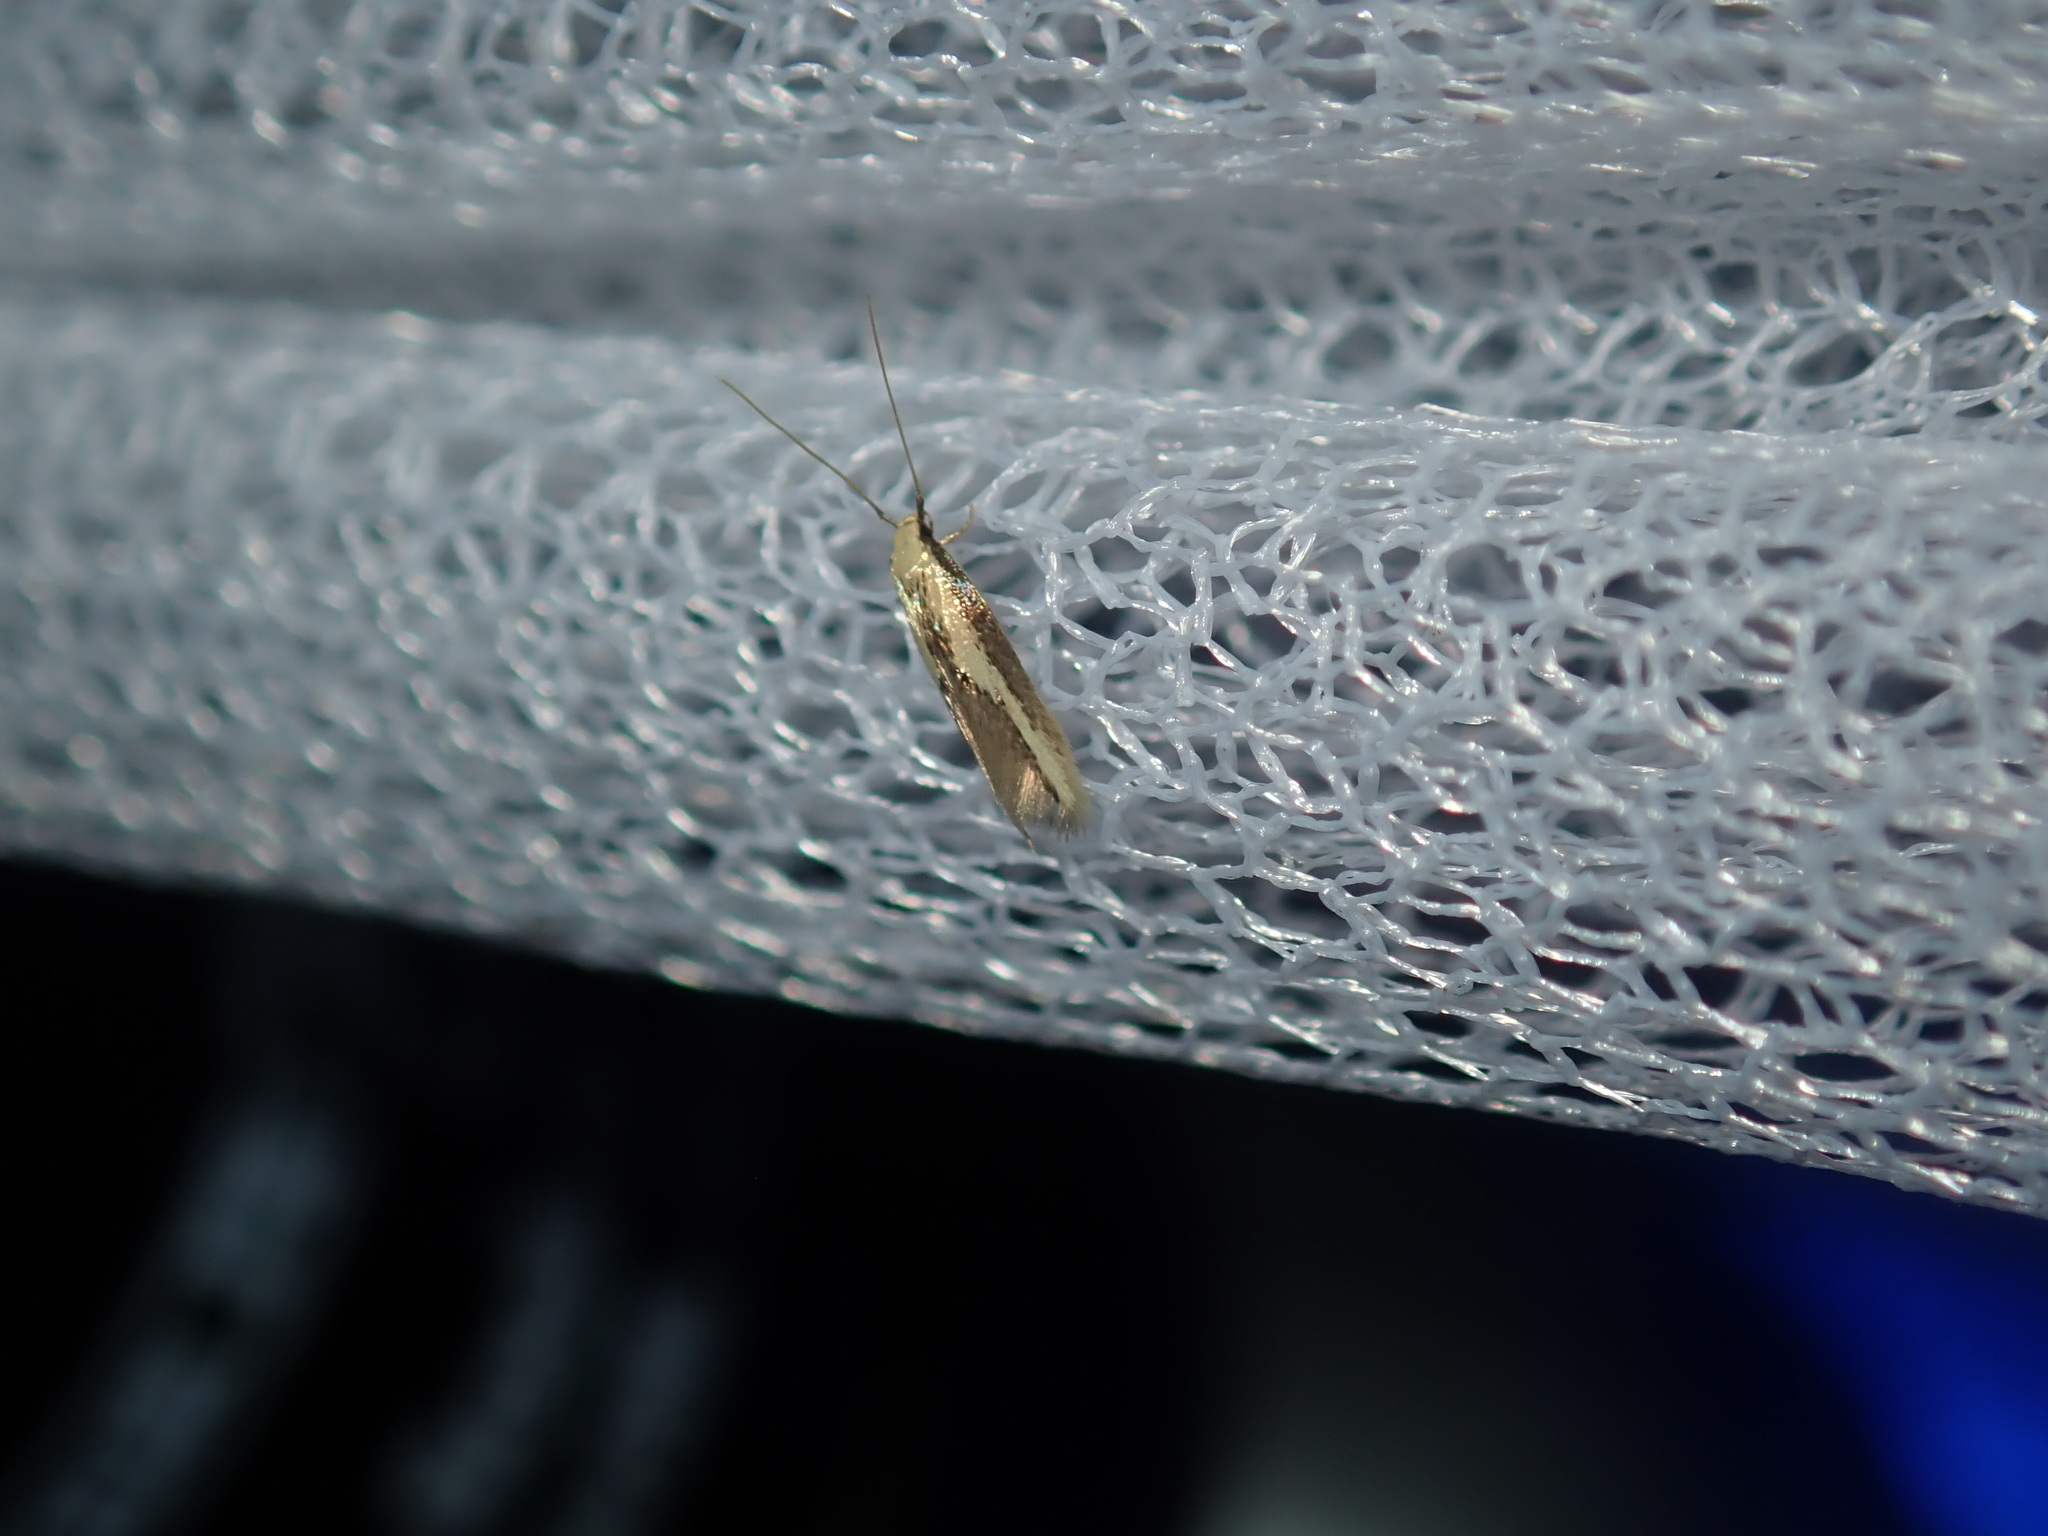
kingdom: Animalia
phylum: Arthropoda
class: Insecta
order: Lepidoptera
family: Tineidae
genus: Opogona
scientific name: Opogona stenocraspeda
